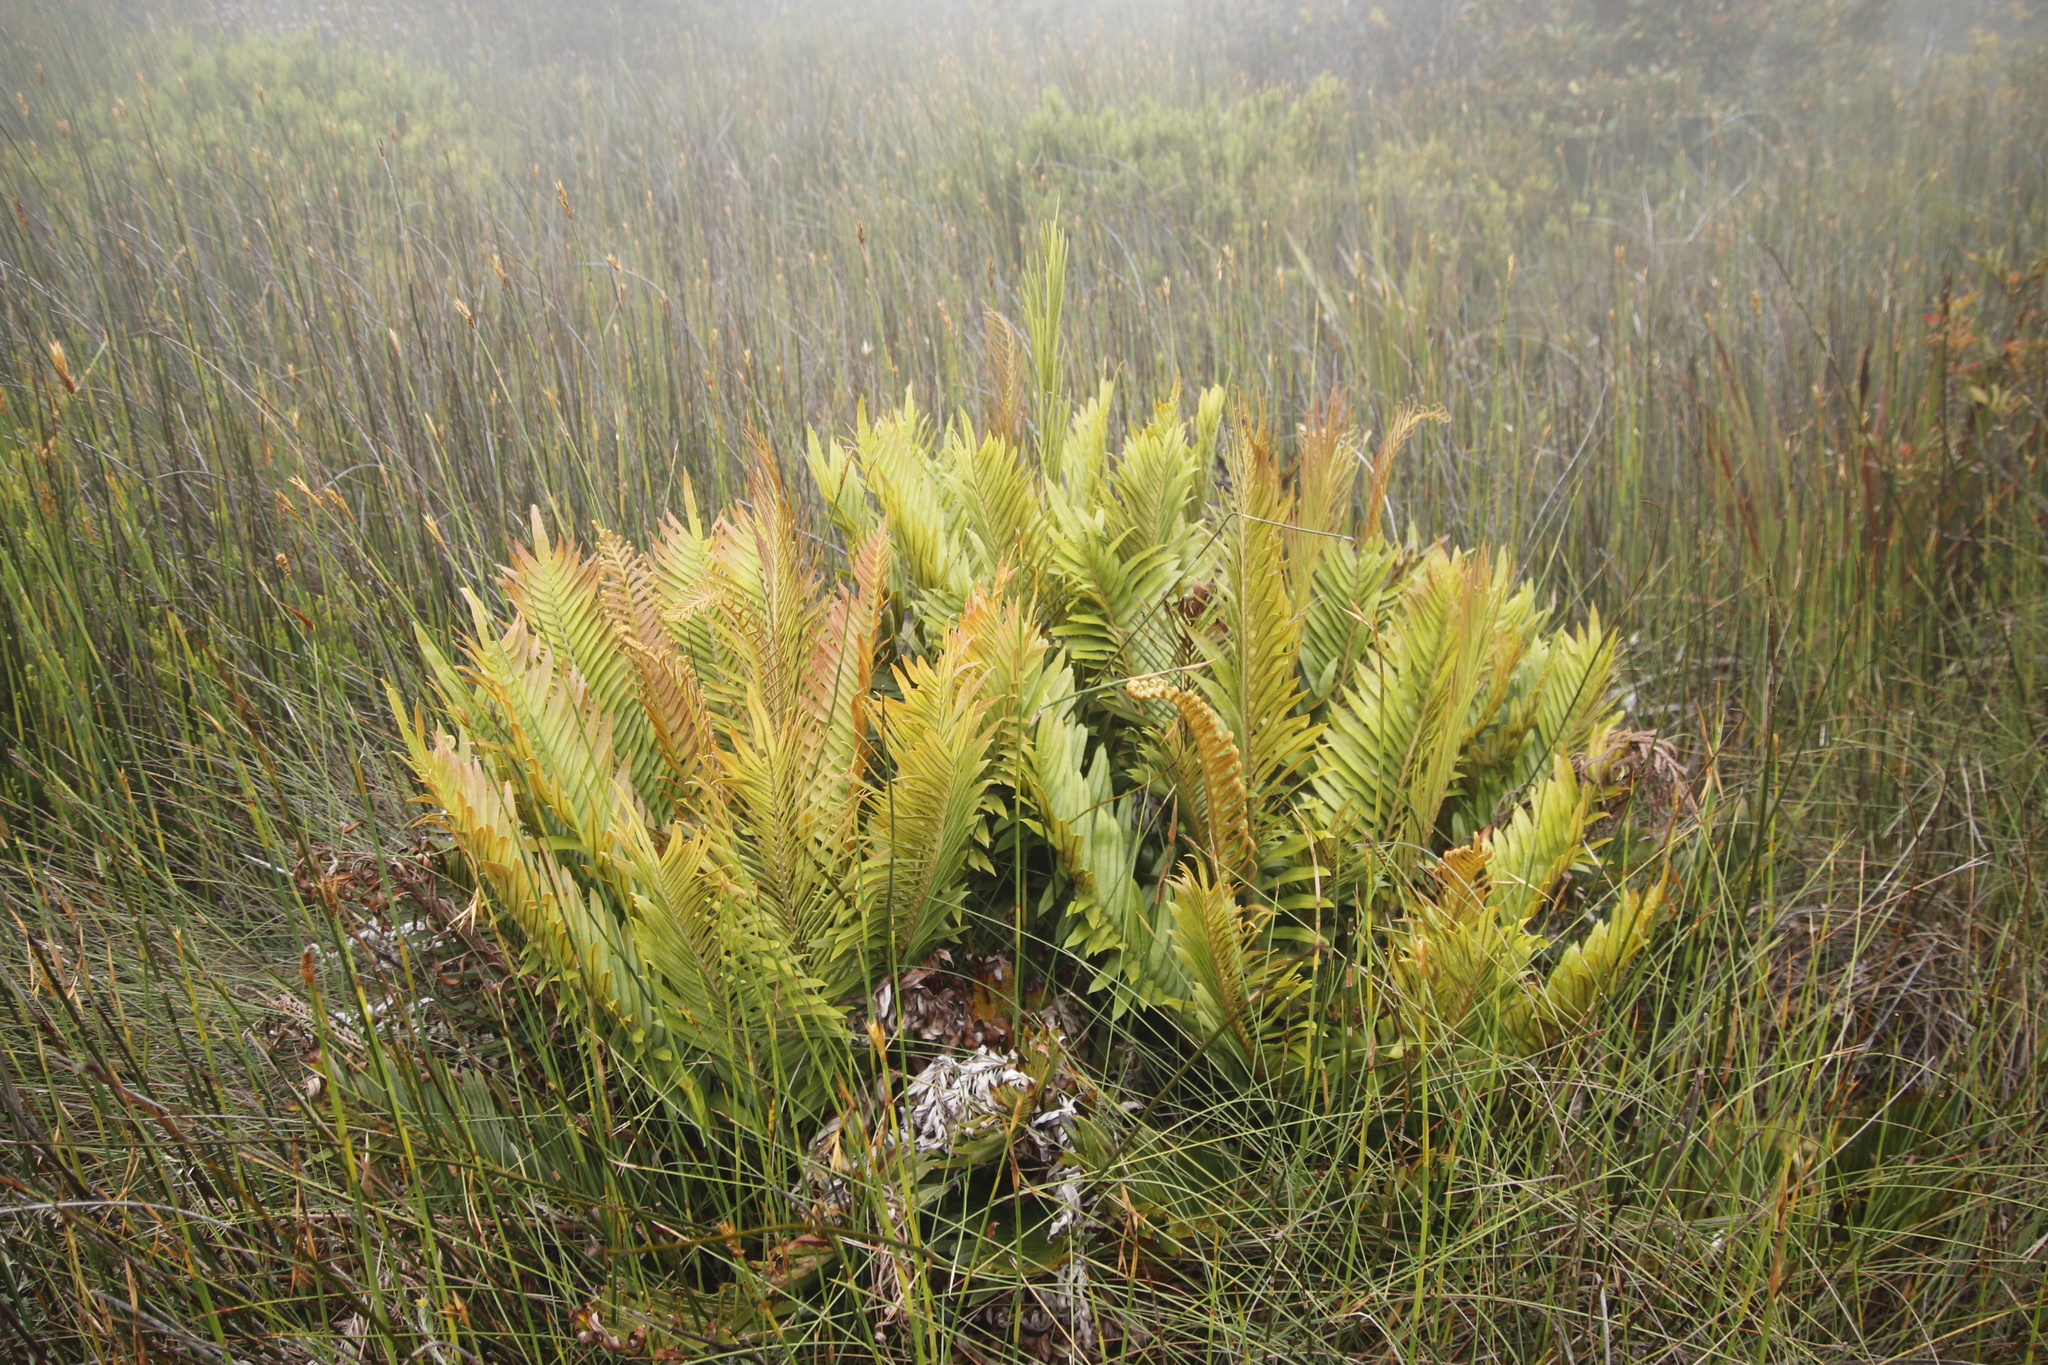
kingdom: Plantae
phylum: Tracheophyta
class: Polypodiopsida
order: Polypodiales
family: Blechnaceae
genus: Lomariocycas
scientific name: Lomariocycas tabularis
